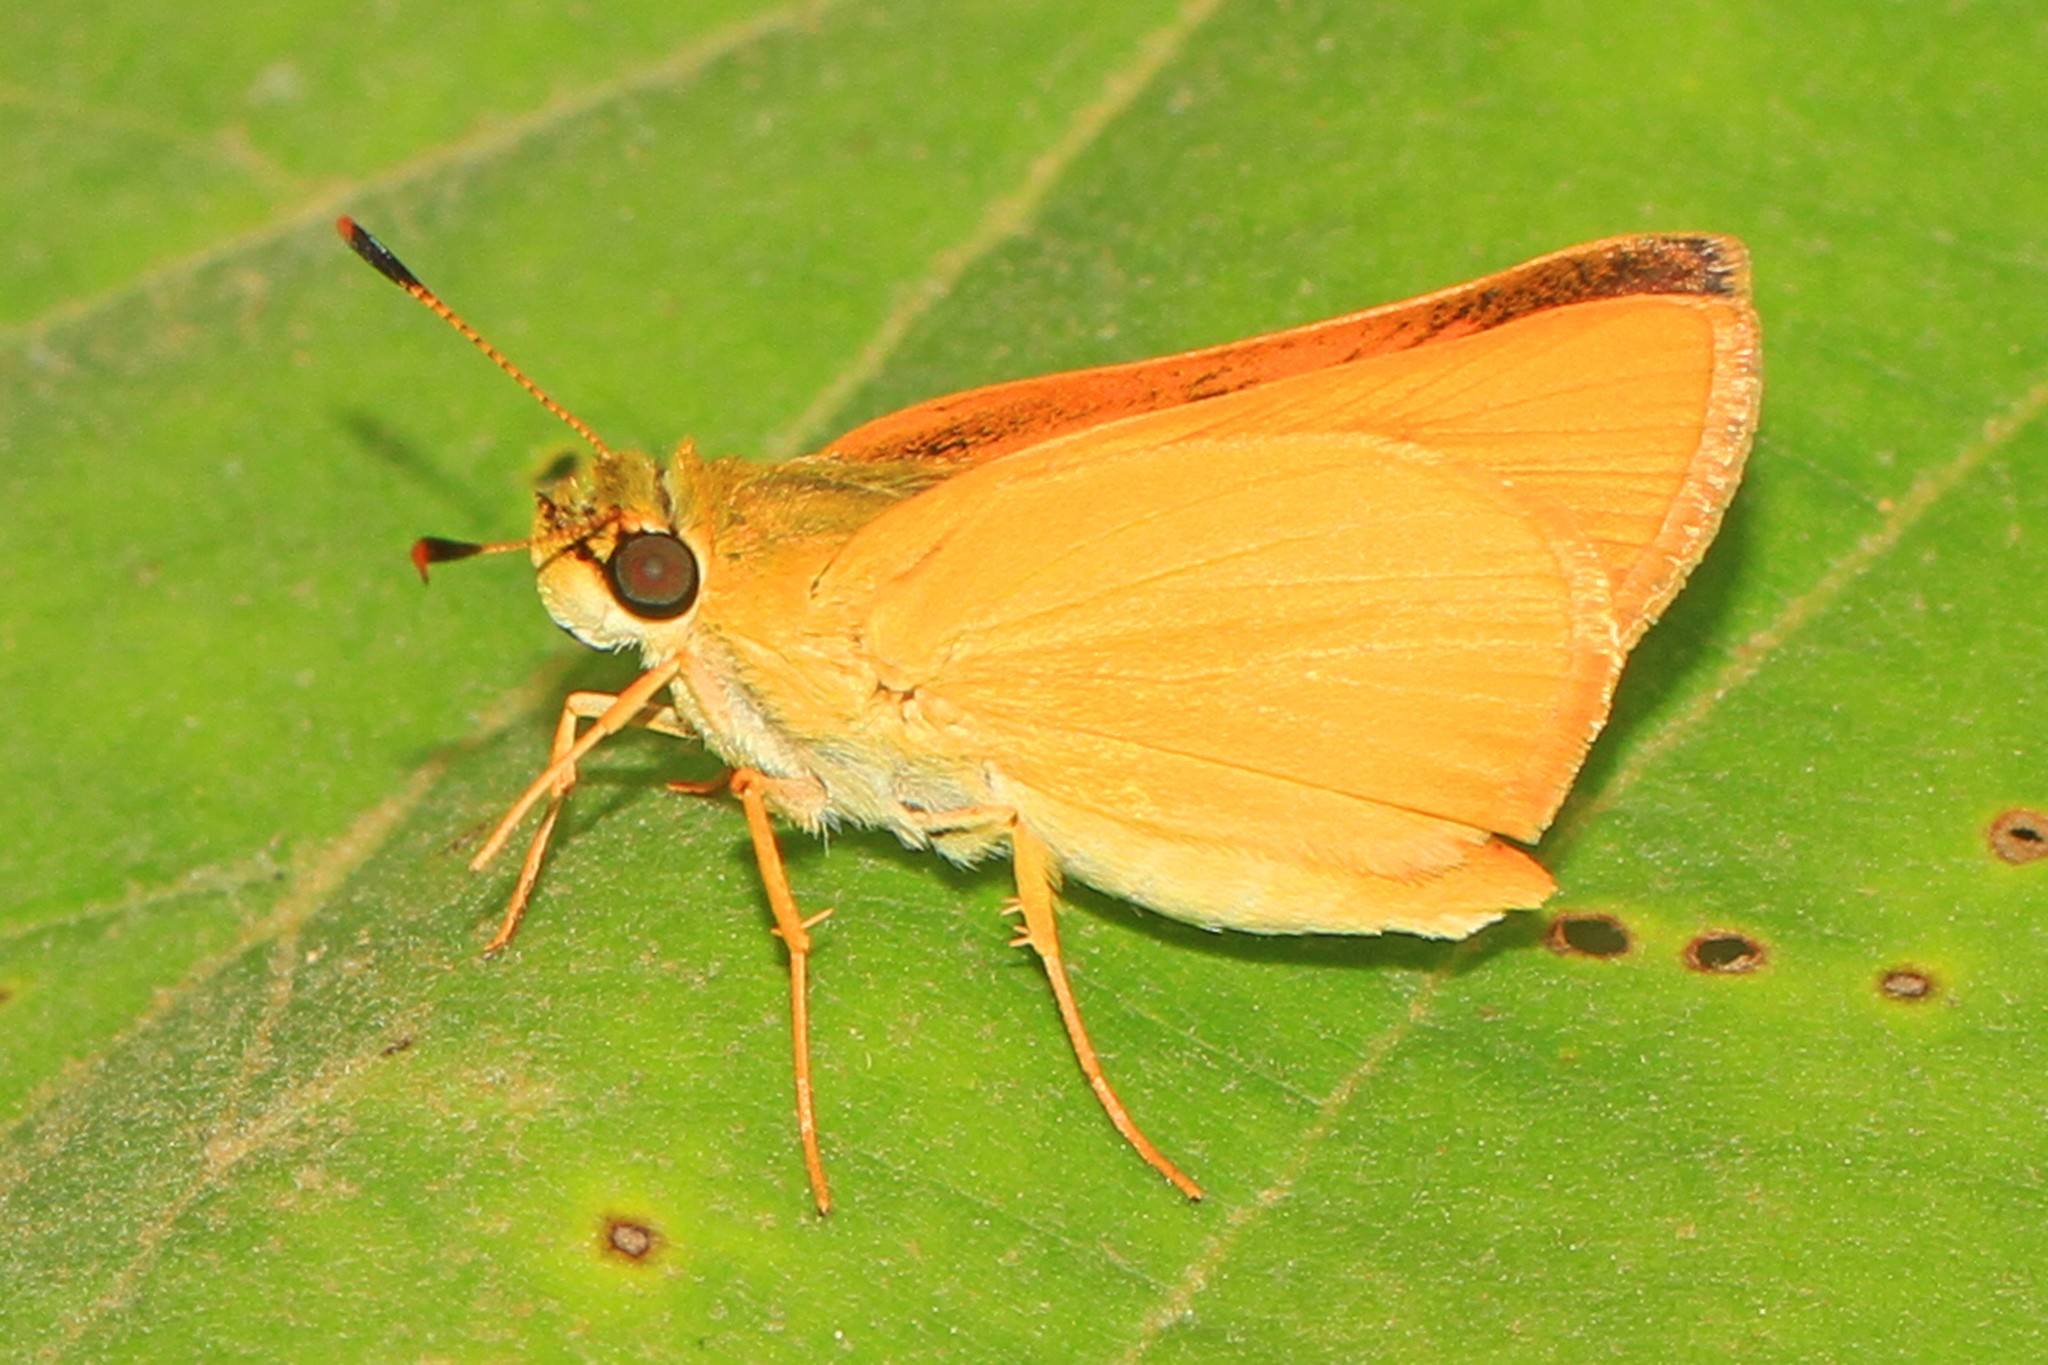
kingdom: Animalia
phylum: Arthropoda
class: Insecta
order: Lepidoptera
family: Hesperiidae
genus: Atrytone
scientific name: Atrytone delaware
